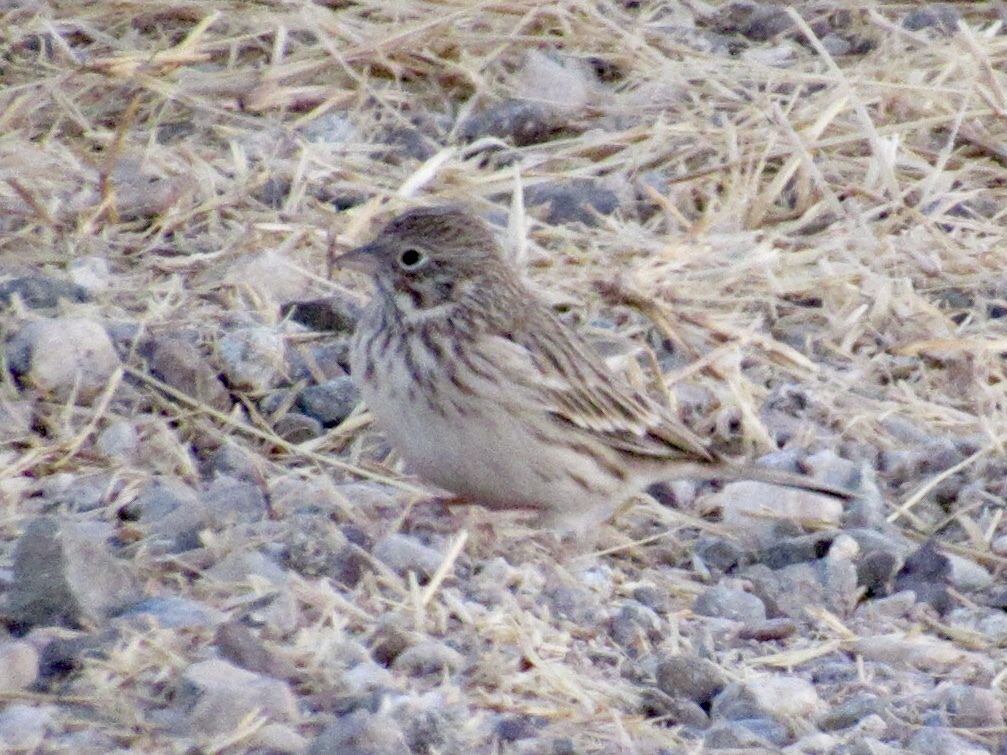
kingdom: Animalia
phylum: Chordata
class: Aves
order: Passeriformes
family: Passerellidae
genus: Pooecetes
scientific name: Pooecetes gramineus
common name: Vesper sparrow
